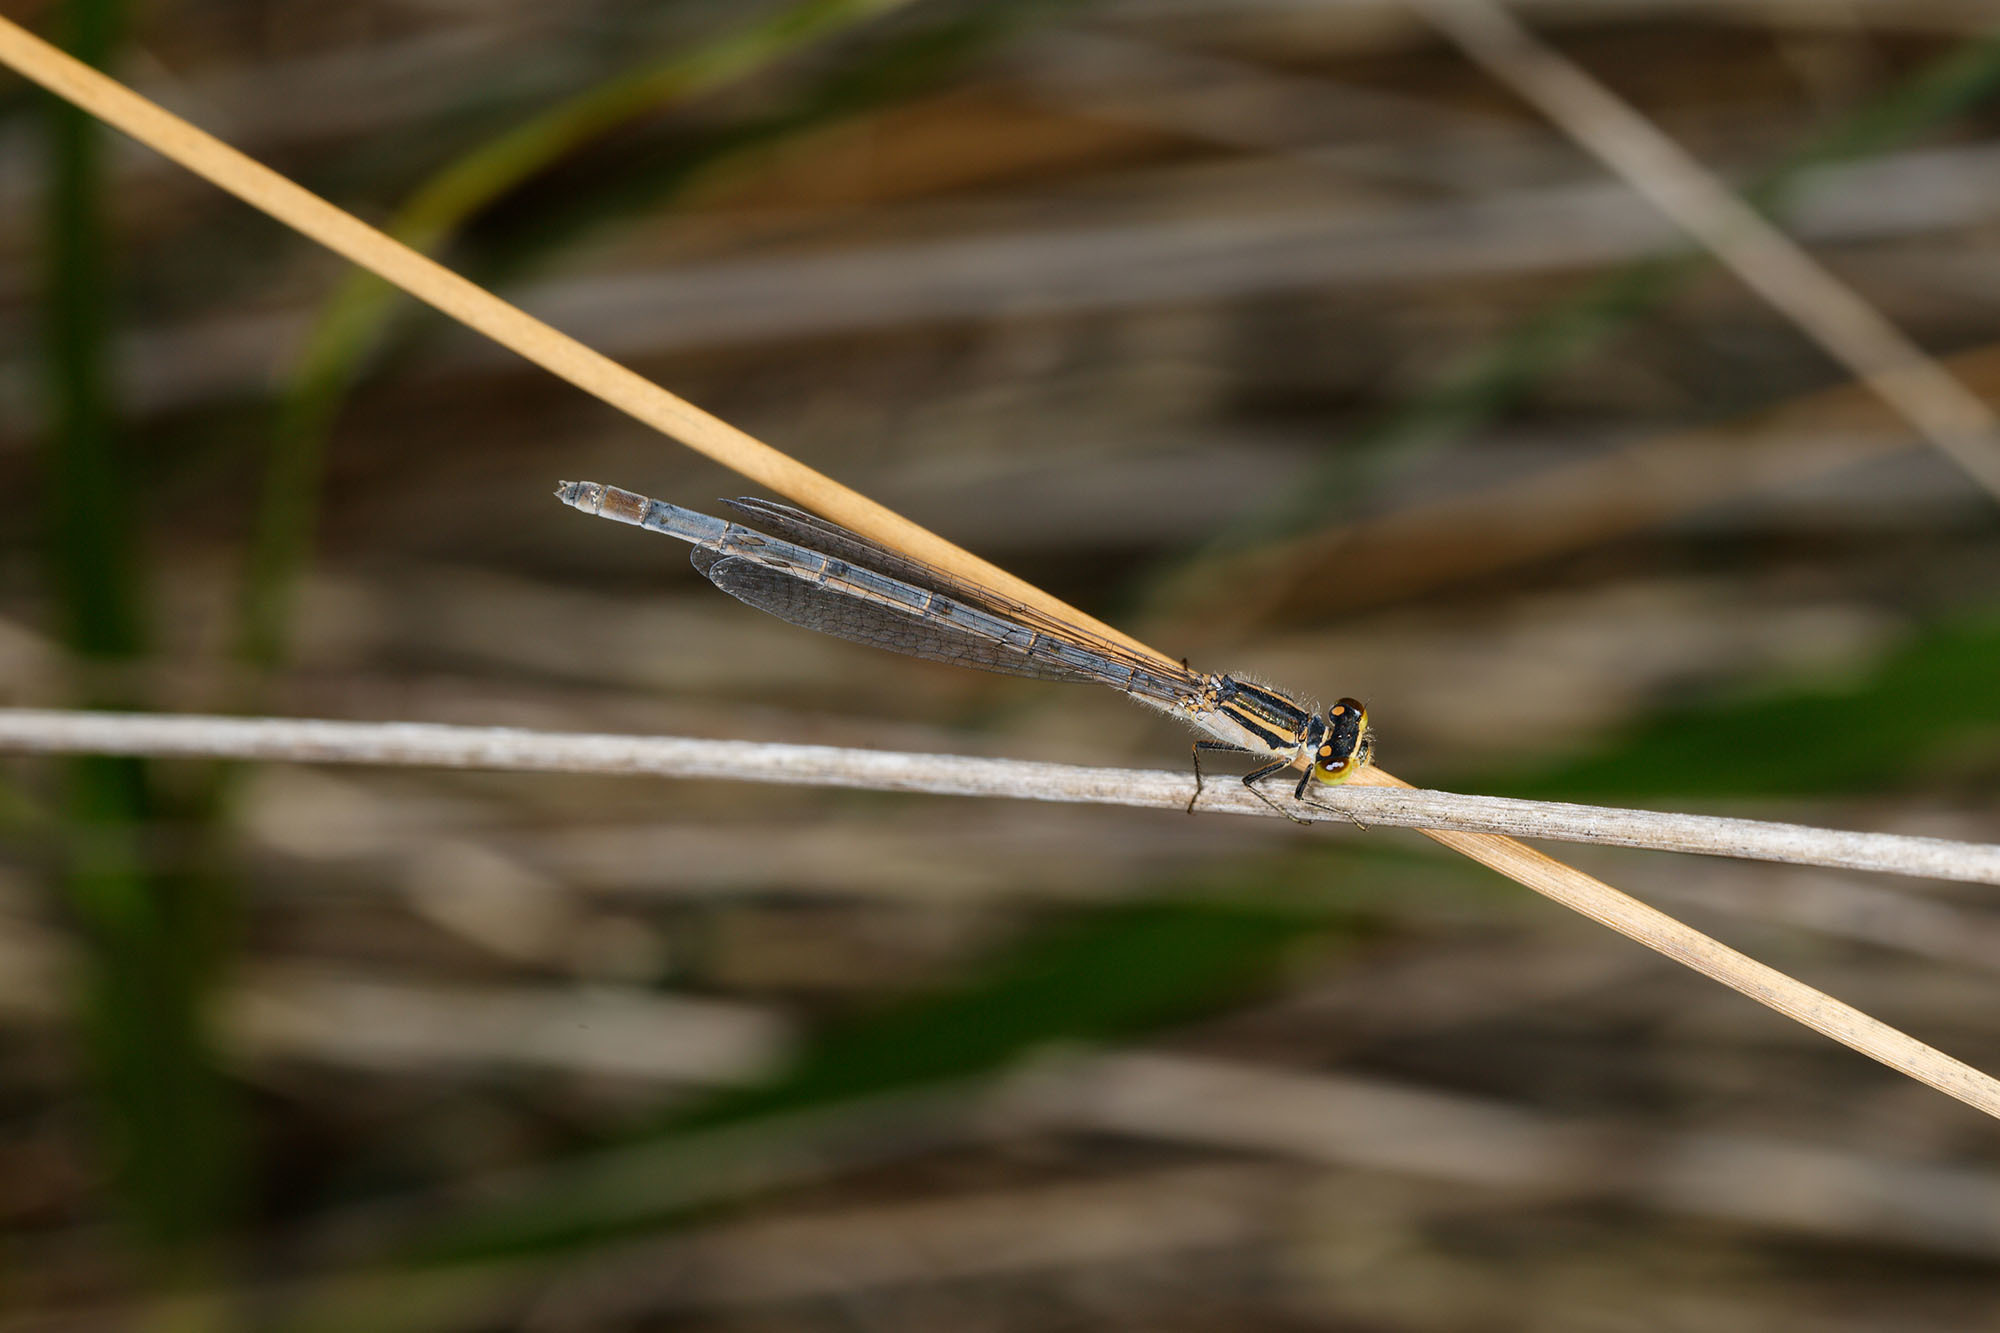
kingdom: Animalia
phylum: Arthropoda
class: Insecta
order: Odonata
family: Coenagrionidae
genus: Ischnura
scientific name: Ischnura heterosticta
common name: Common bluetail
